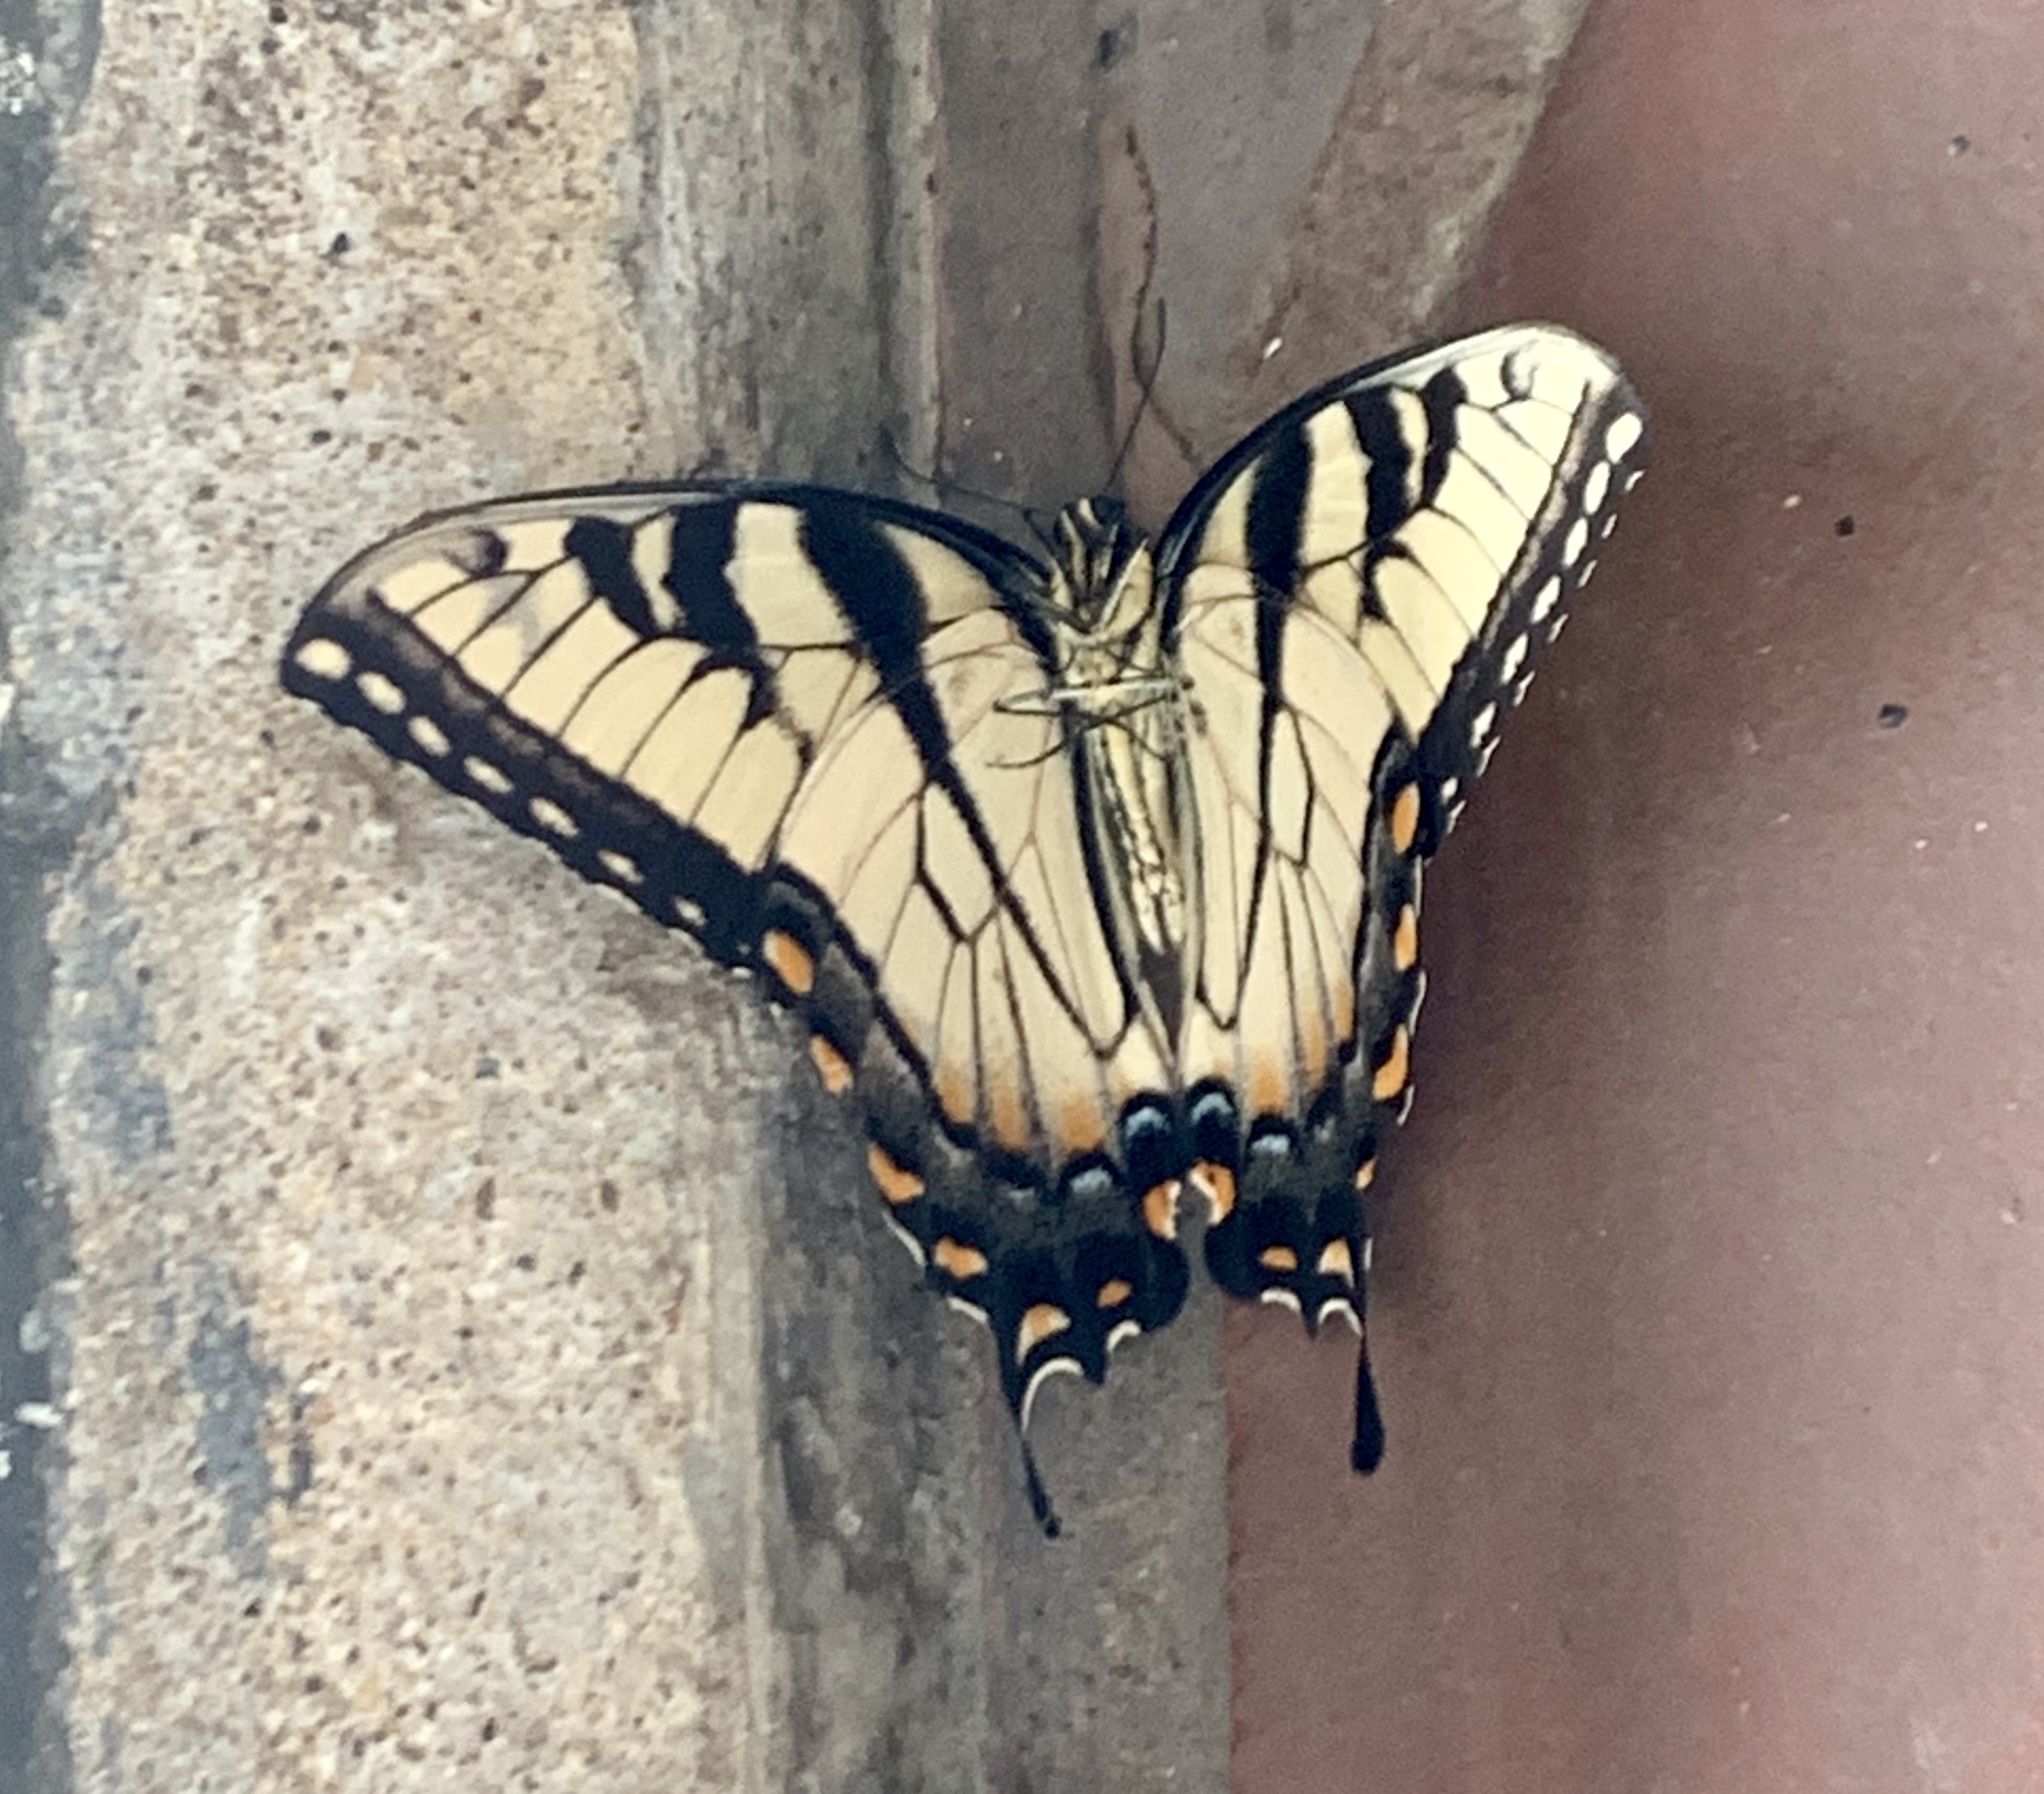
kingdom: Animalia
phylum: Arthropoda
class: Insecta
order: Lepidoptera
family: Papilionidae
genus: Papilio
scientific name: Papilio glaucus
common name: Tiger swallowtail
